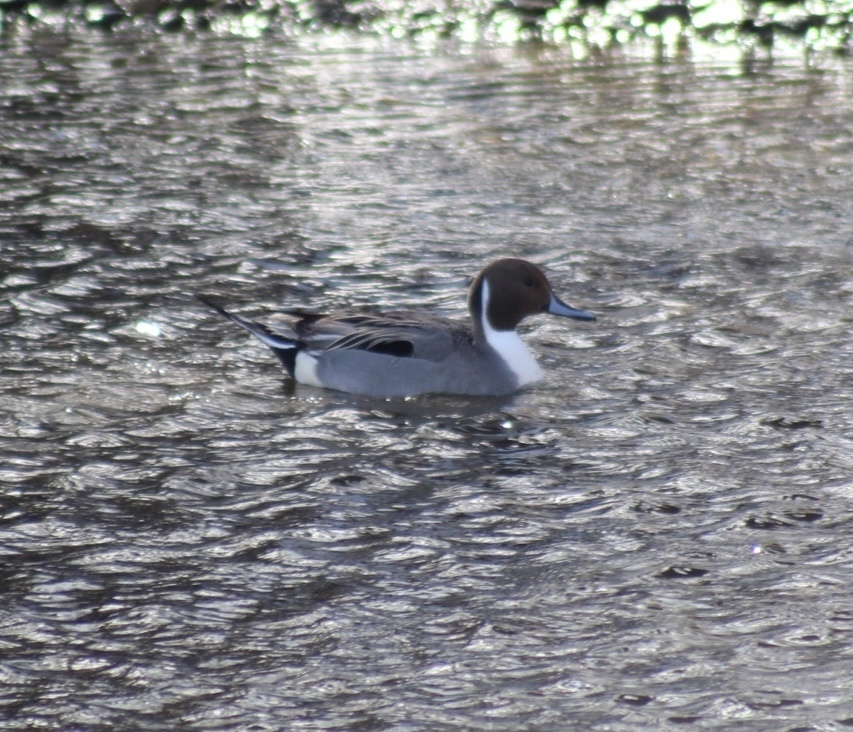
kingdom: Animalia
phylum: Chordata
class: Aves
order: Anseriformes
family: Anatidae
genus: Anas
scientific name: Anas acuta
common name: Northern pintail
